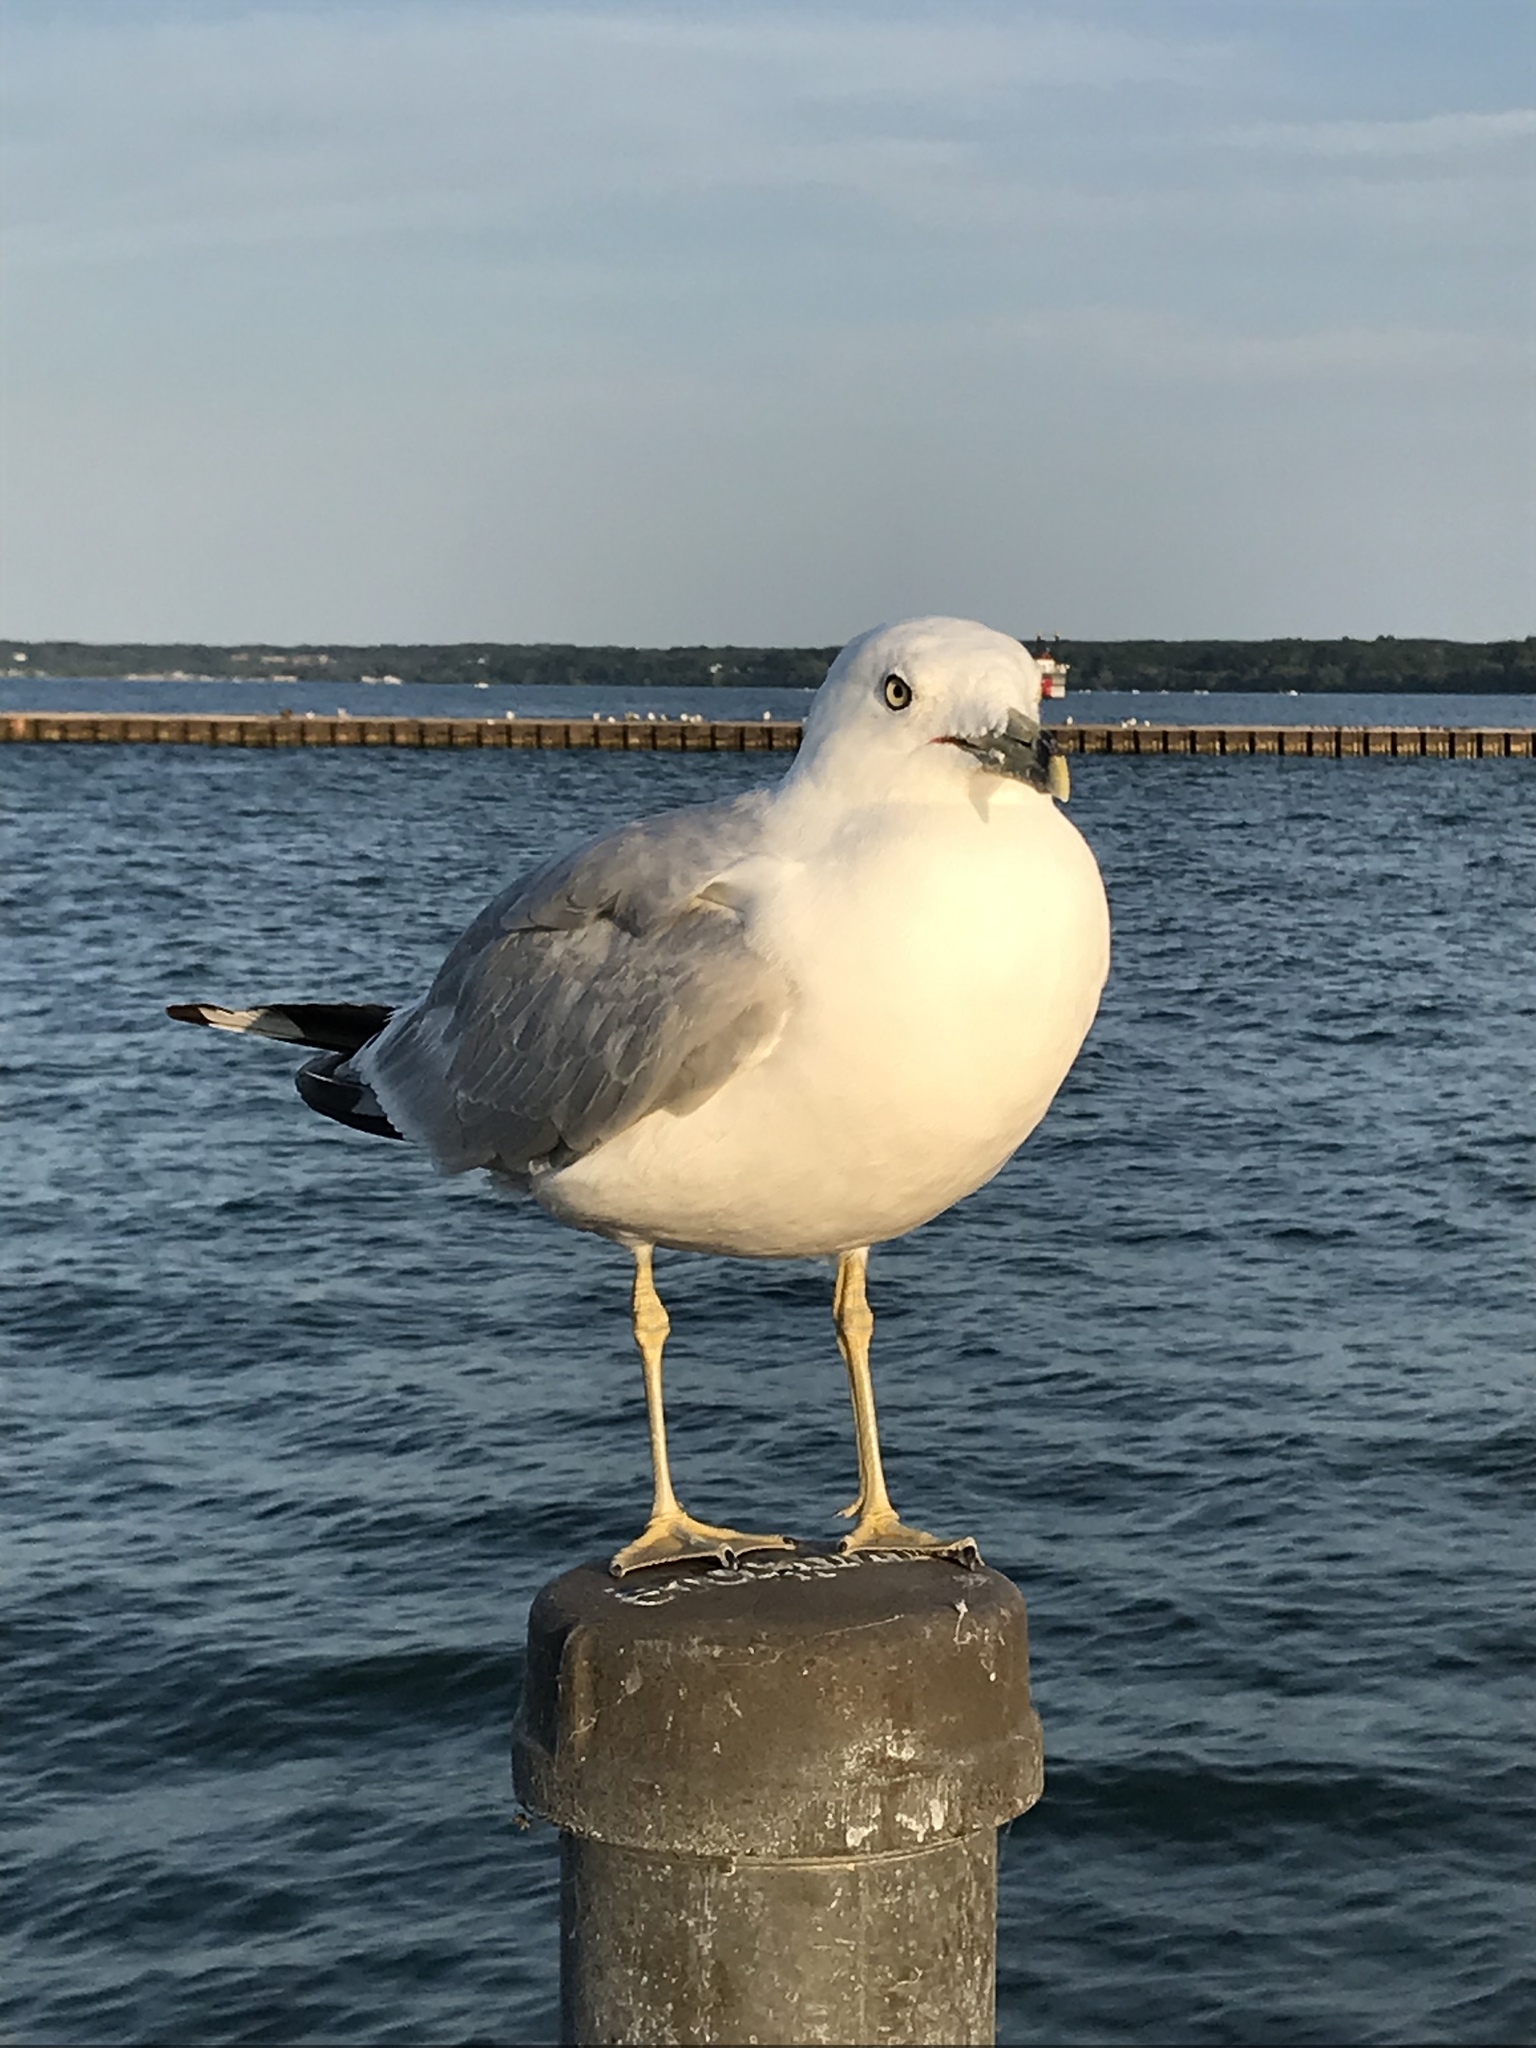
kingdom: Animalia
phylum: Chordata
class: Aves
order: Charadriiformes
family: Laridae
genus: Larus
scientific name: Larus delawarensis
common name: Ring-billed gull
